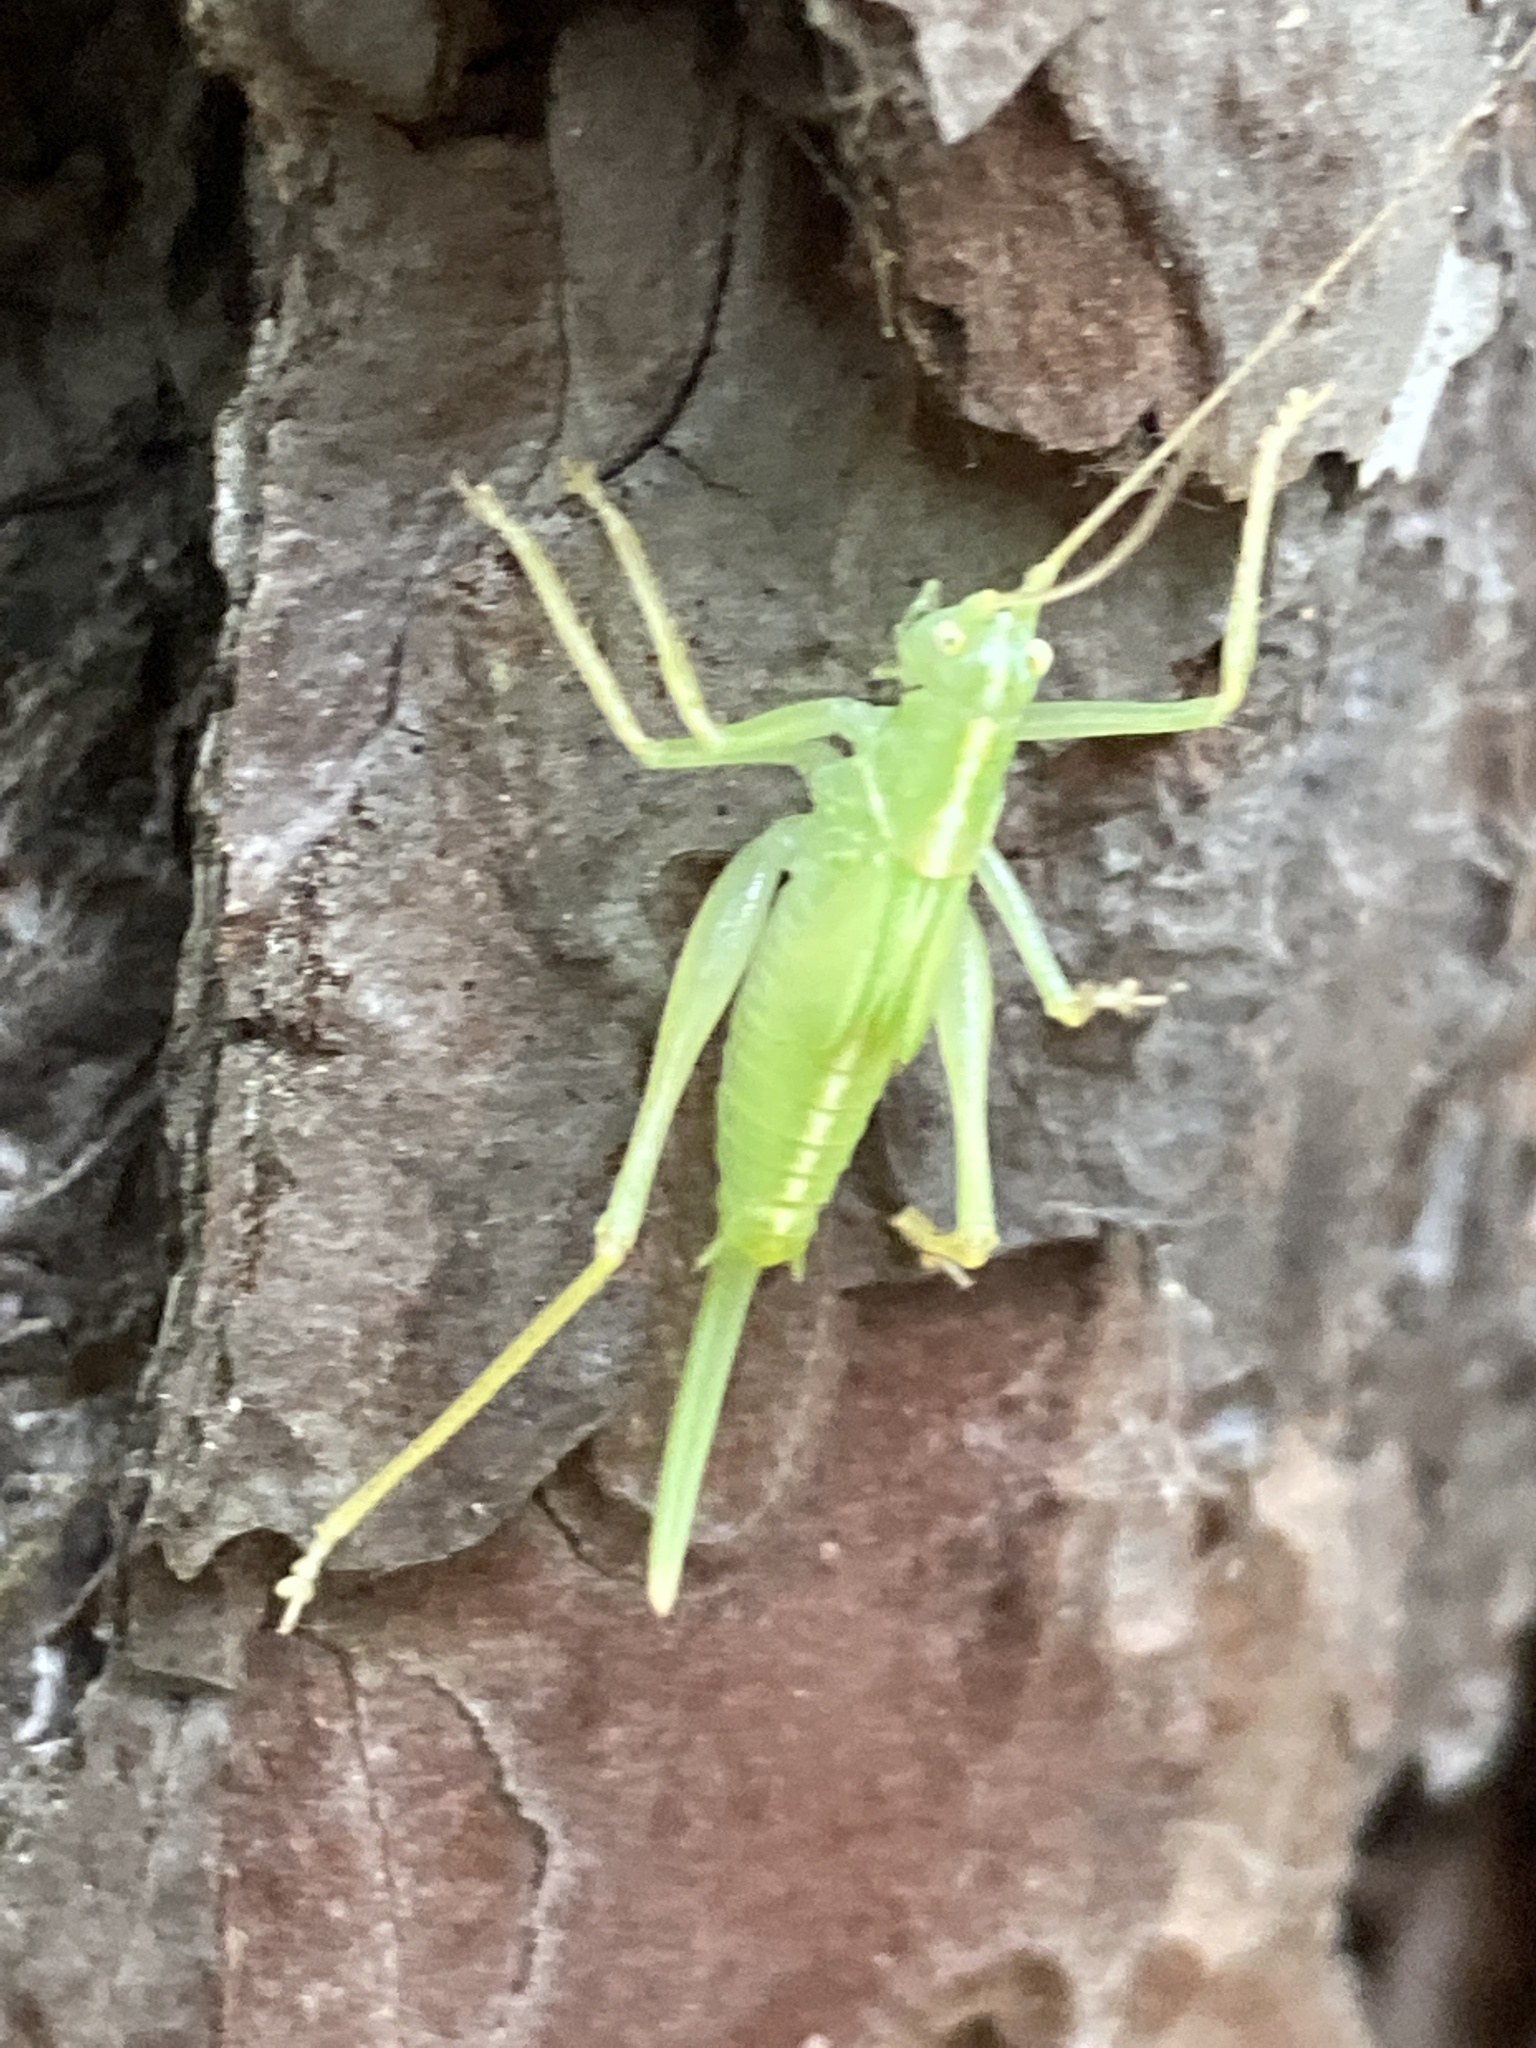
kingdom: Animalia
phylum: Arthropoda
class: Insecta
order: Orthoptera
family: Tettigoniidae
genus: Meconema
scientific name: Meconema thalassinum
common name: Oak bush-cricket
